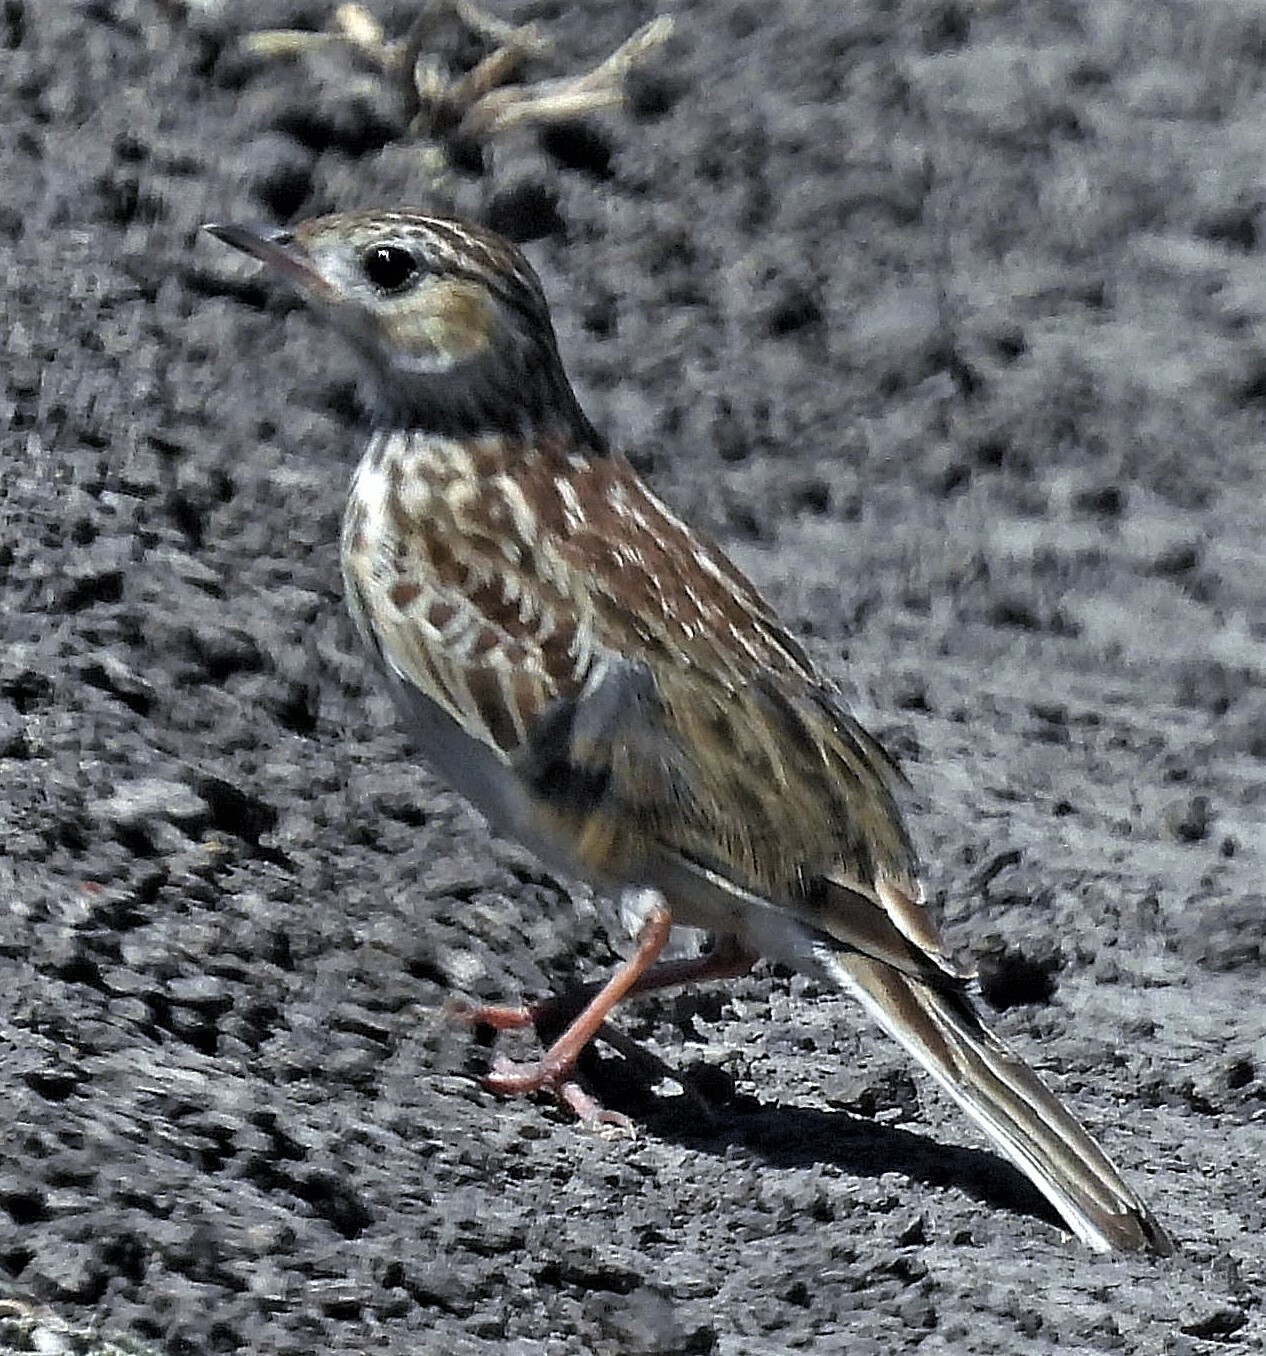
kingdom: Animalia
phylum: Chordata
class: Aves
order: Passeriformes
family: Motacillidae
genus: Anthus
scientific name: Anthus furcatus
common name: Short-billed pipit
